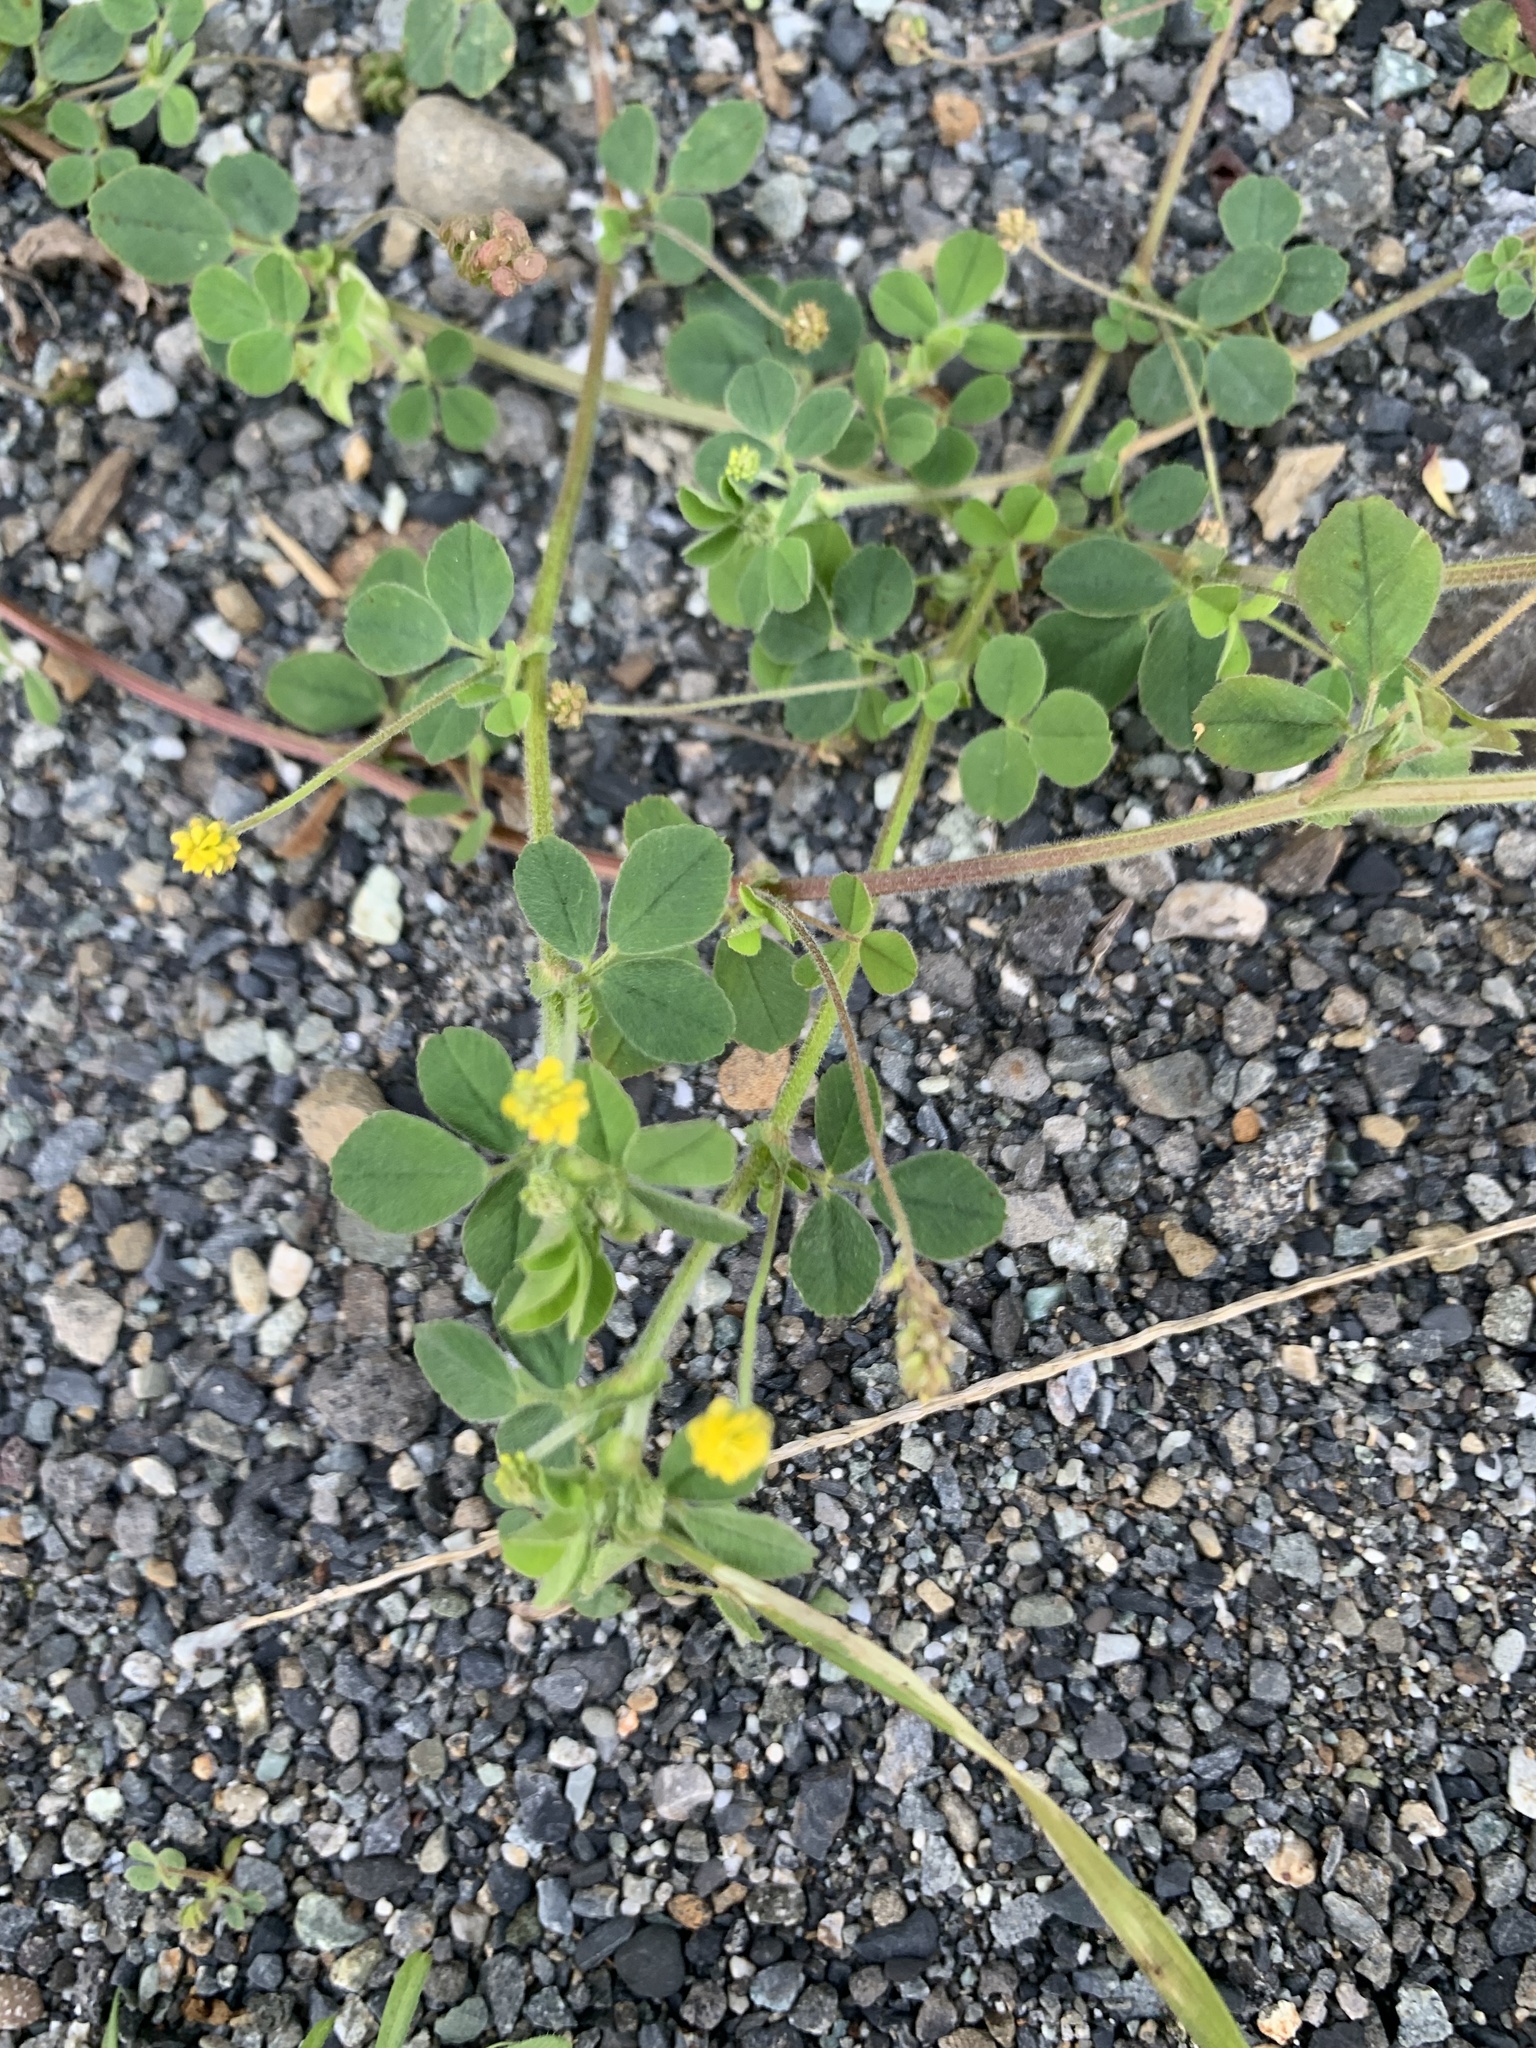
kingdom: Plantae
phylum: Tracheophyta
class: Magnoliopsida
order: Fabales
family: Fabaceae
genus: Medicago
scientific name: Medicago lupulina
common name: Black medick
